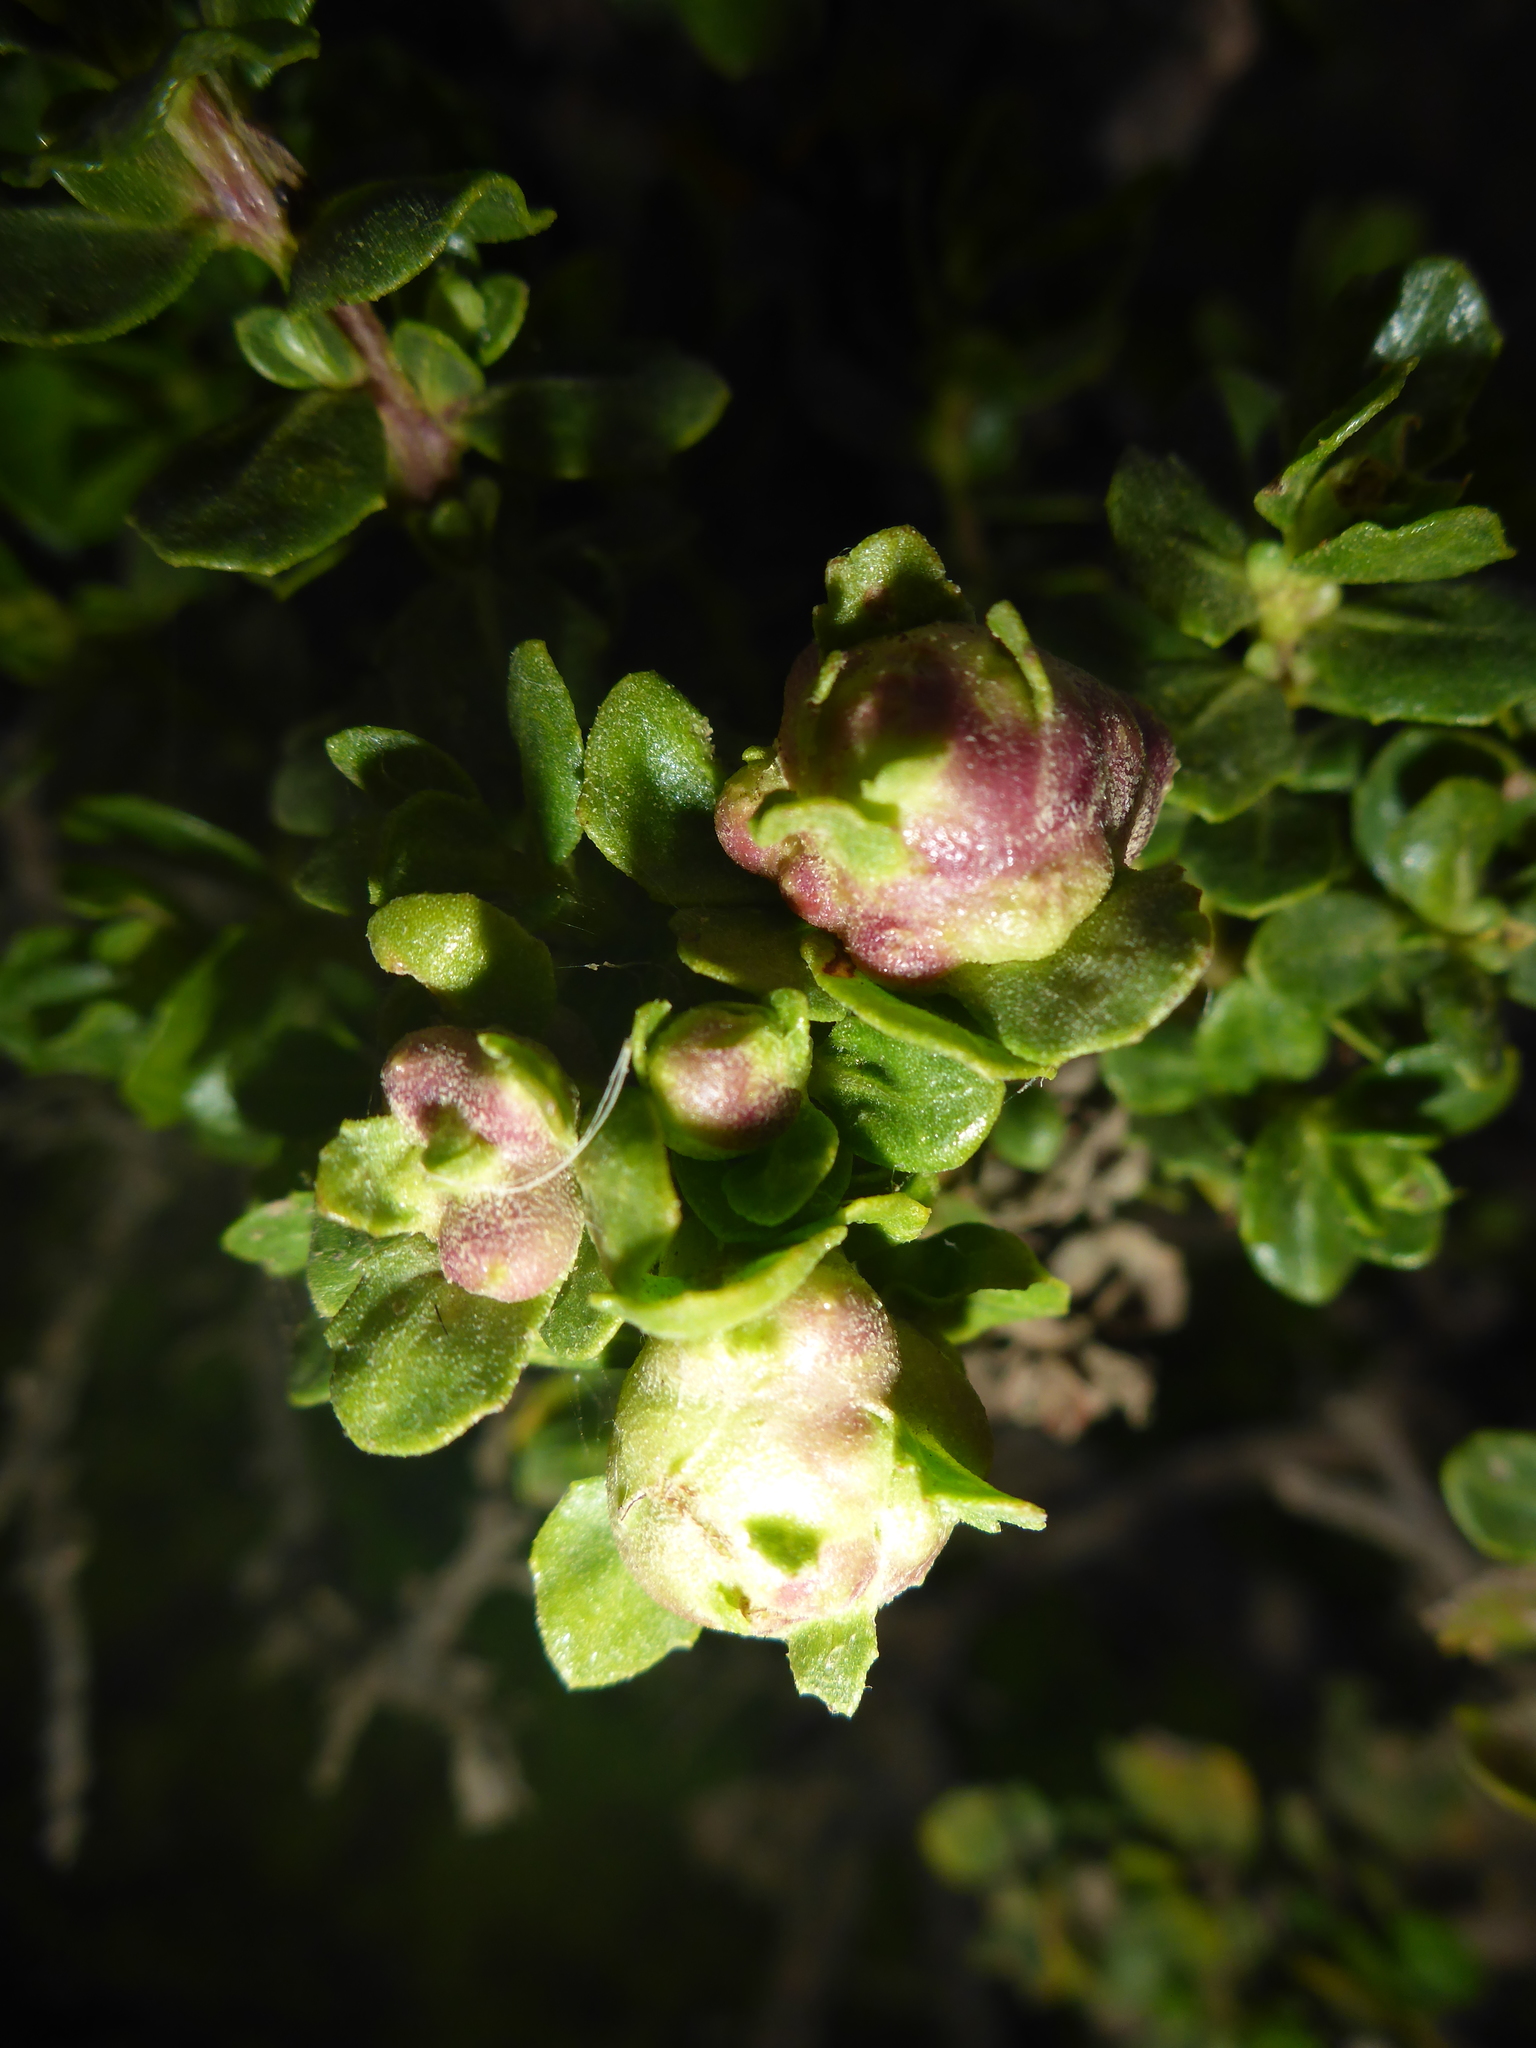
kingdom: Animalia
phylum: Arthropoda
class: Insecta
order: Diptera
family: Cecidomyiidae
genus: Rhopalomyia
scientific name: Rhopalomyia californica
